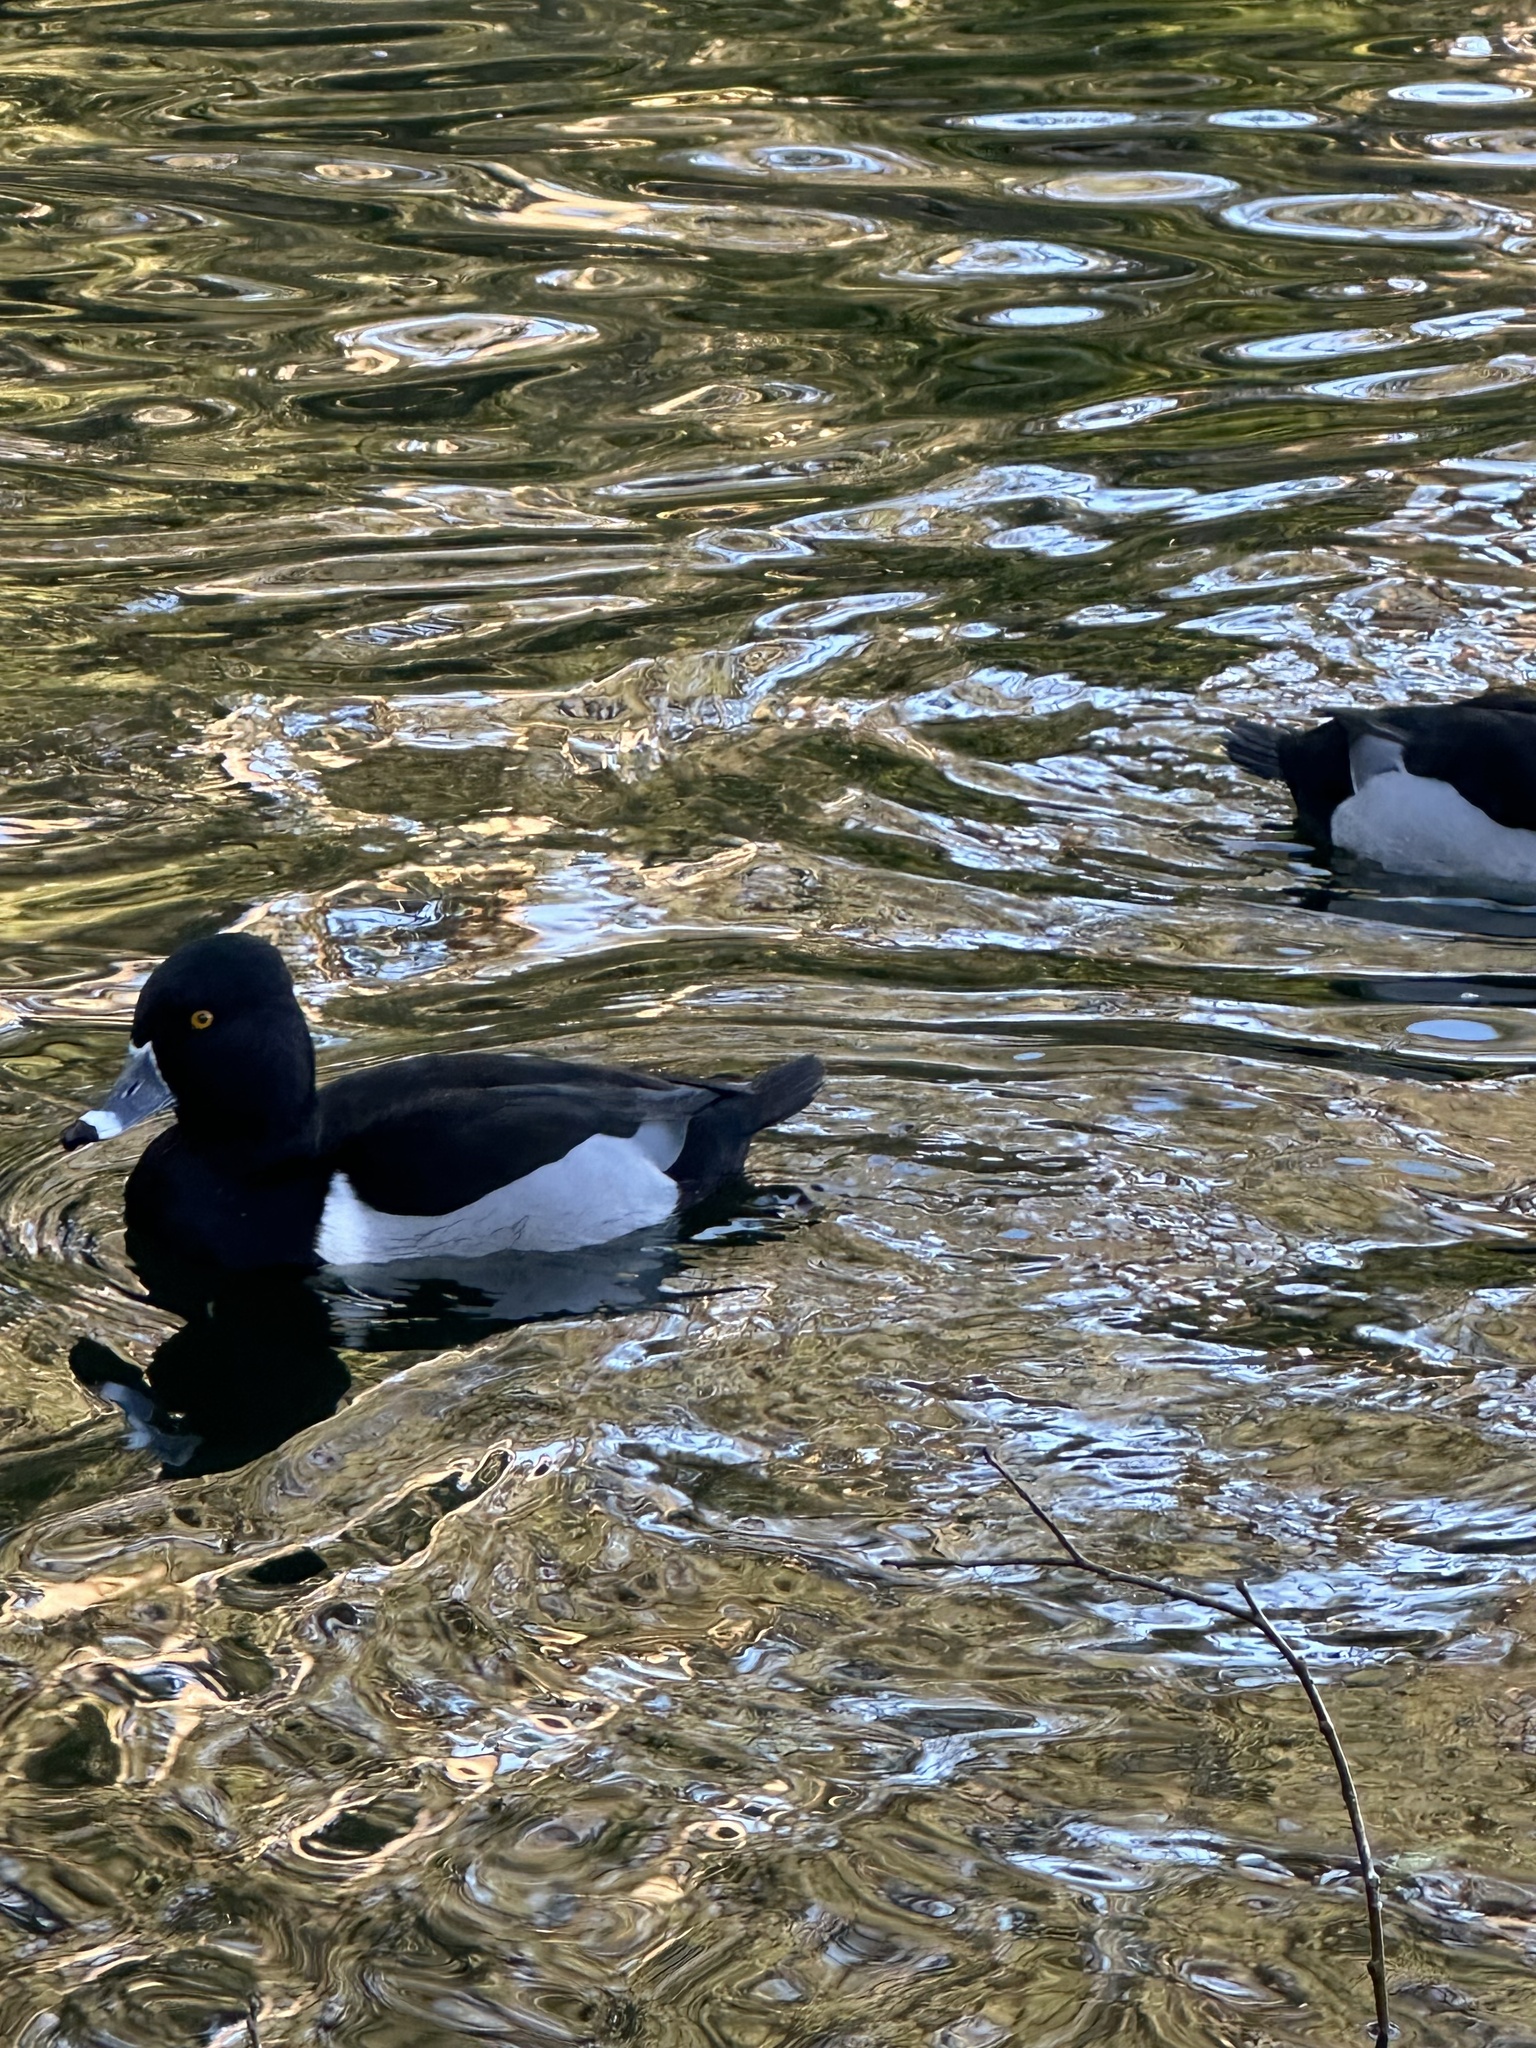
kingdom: Animalia
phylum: Chordata
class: Aves
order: Anseriformes
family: Anatidae
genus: Aythya
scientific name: Aythya collaris
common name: Ring-necked duck
